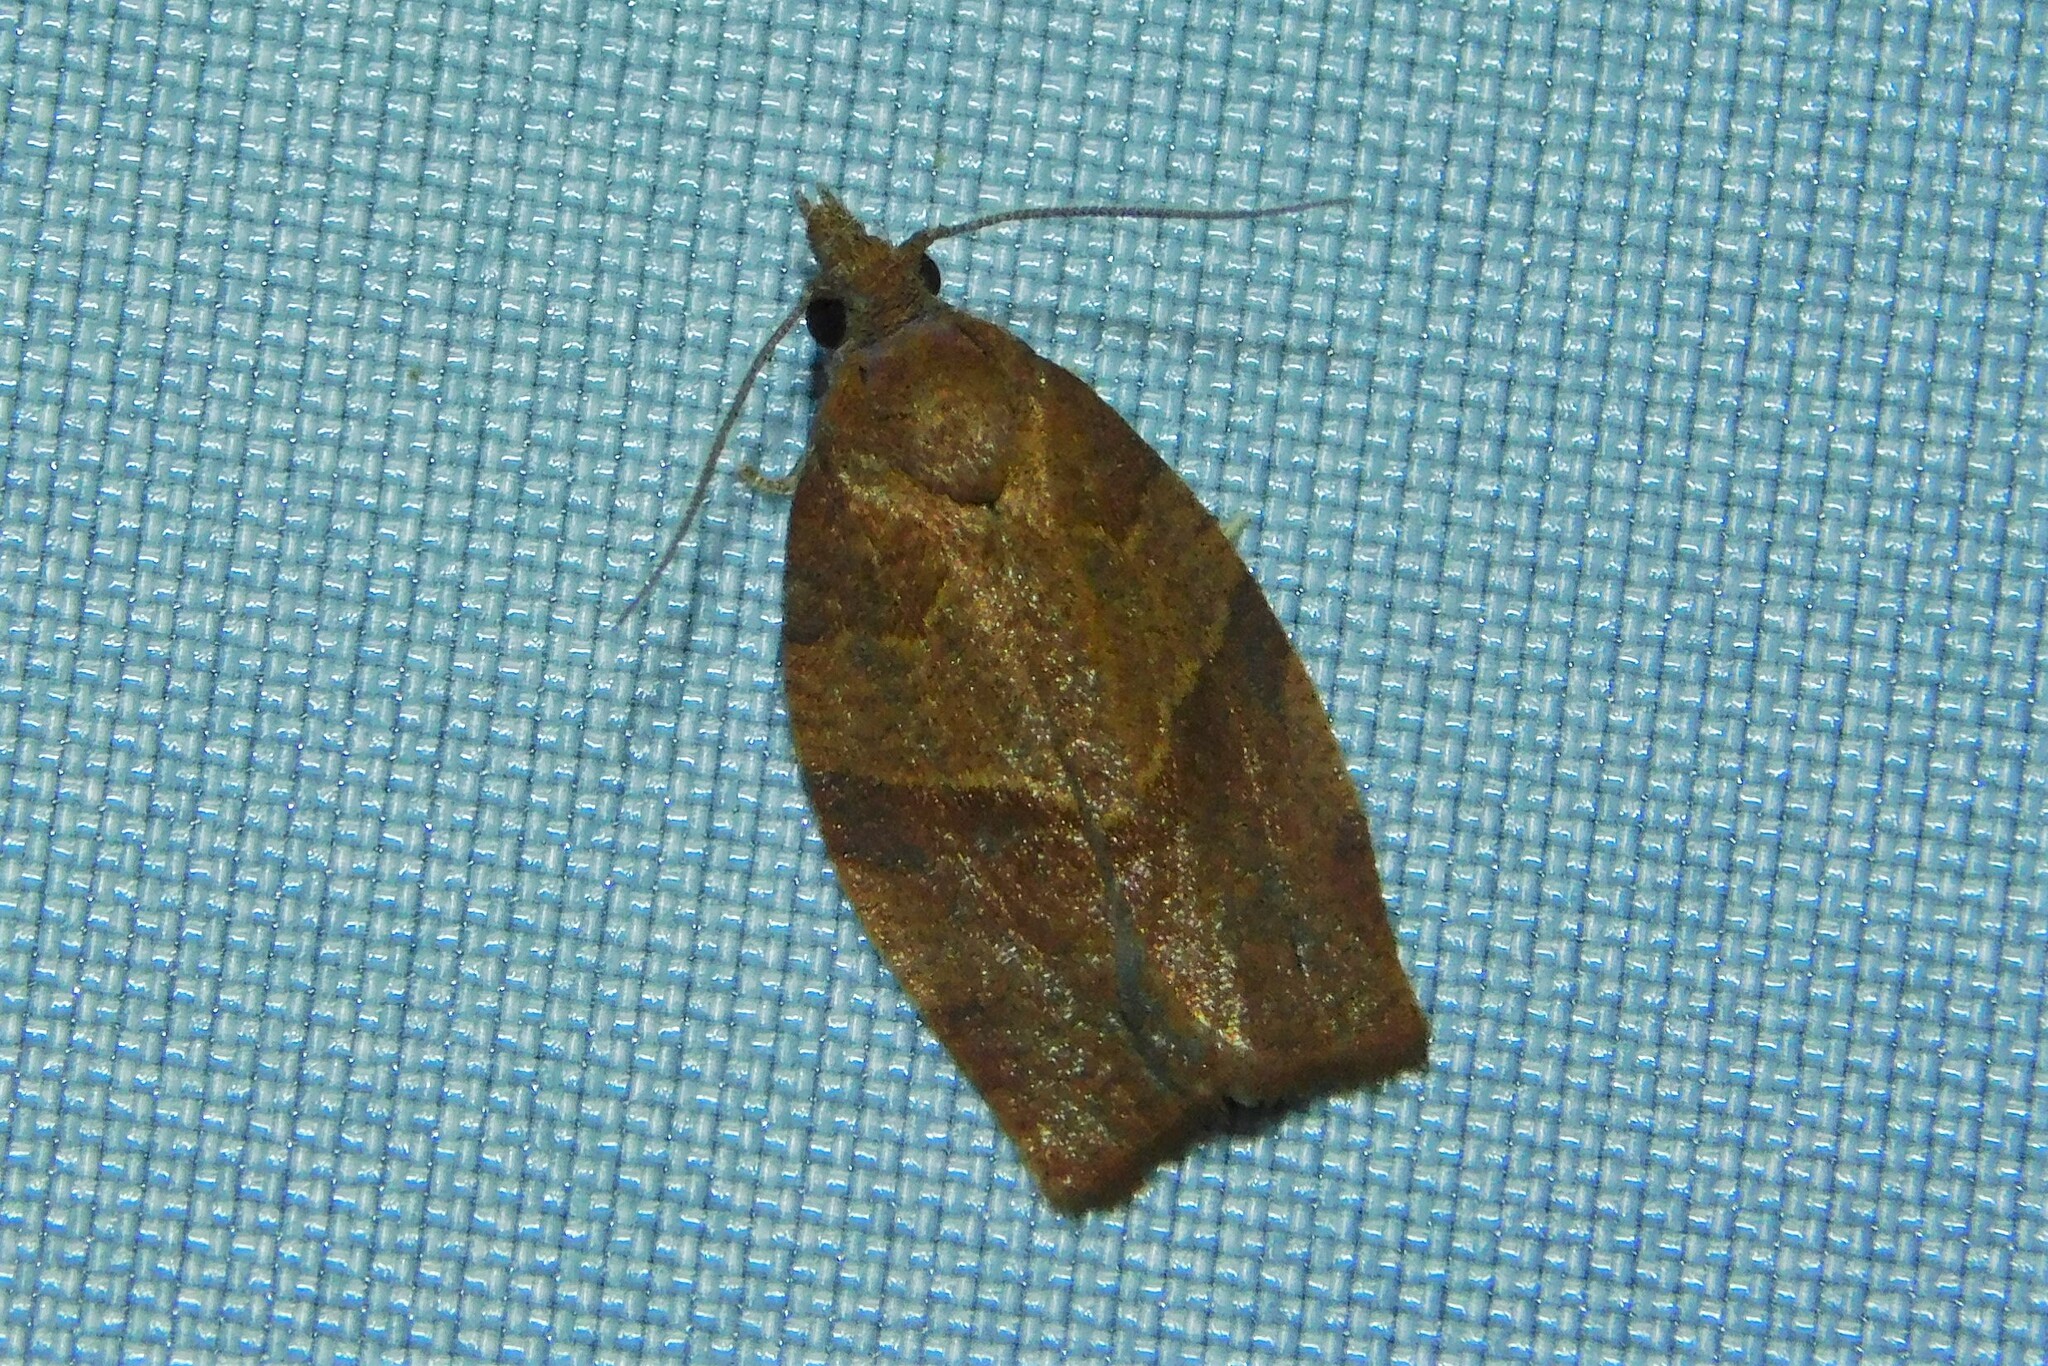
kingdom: Animalia
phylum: Arthropoda
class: Insecta
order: Lepidoptera
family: Tortricidae
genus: Pandemis
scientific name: Pandemis heparana
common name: Dark fruit-tree tortrix
